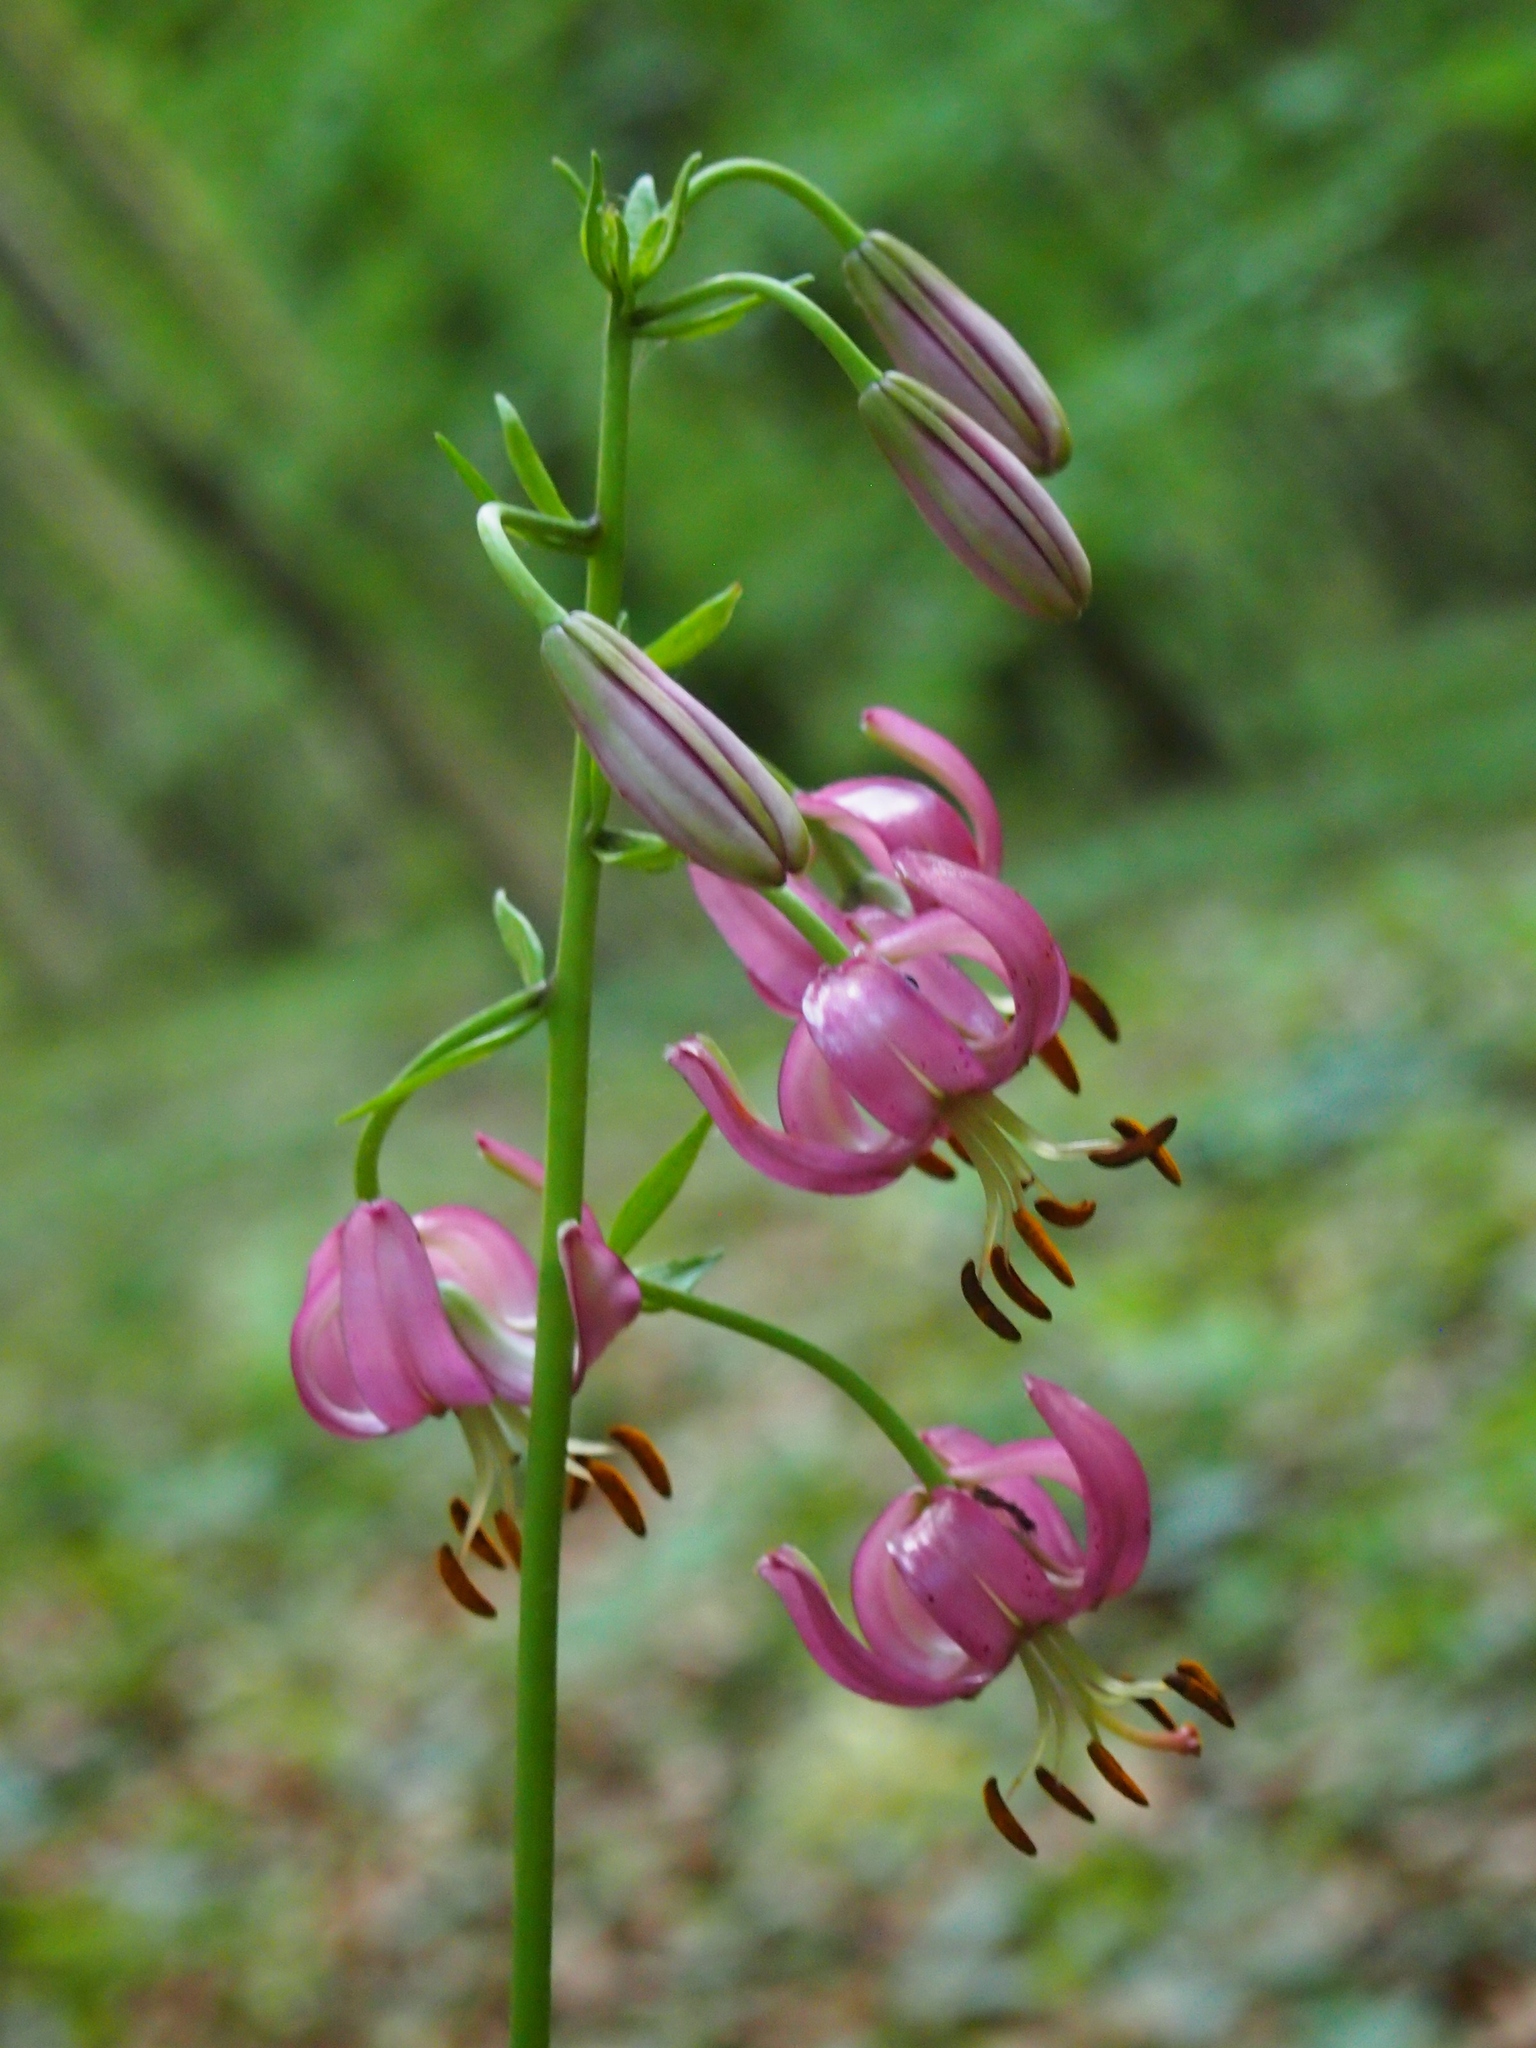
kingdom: Plantae
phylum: Tracheophyta
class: Liliopsida
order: Liliales
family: Liliaceae
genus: Lilium
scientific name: Lilium martagon
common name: Martagon lily
